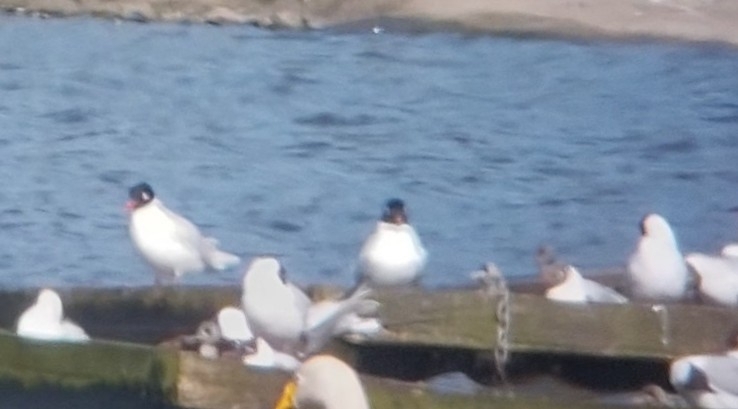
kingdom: Animalia
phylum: Chordata
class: Aves
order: Charadriiformes
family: Laridae
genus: Ichthyaetus
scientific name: Ichthyaetus melanocephalus
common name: Mediterranean gull
